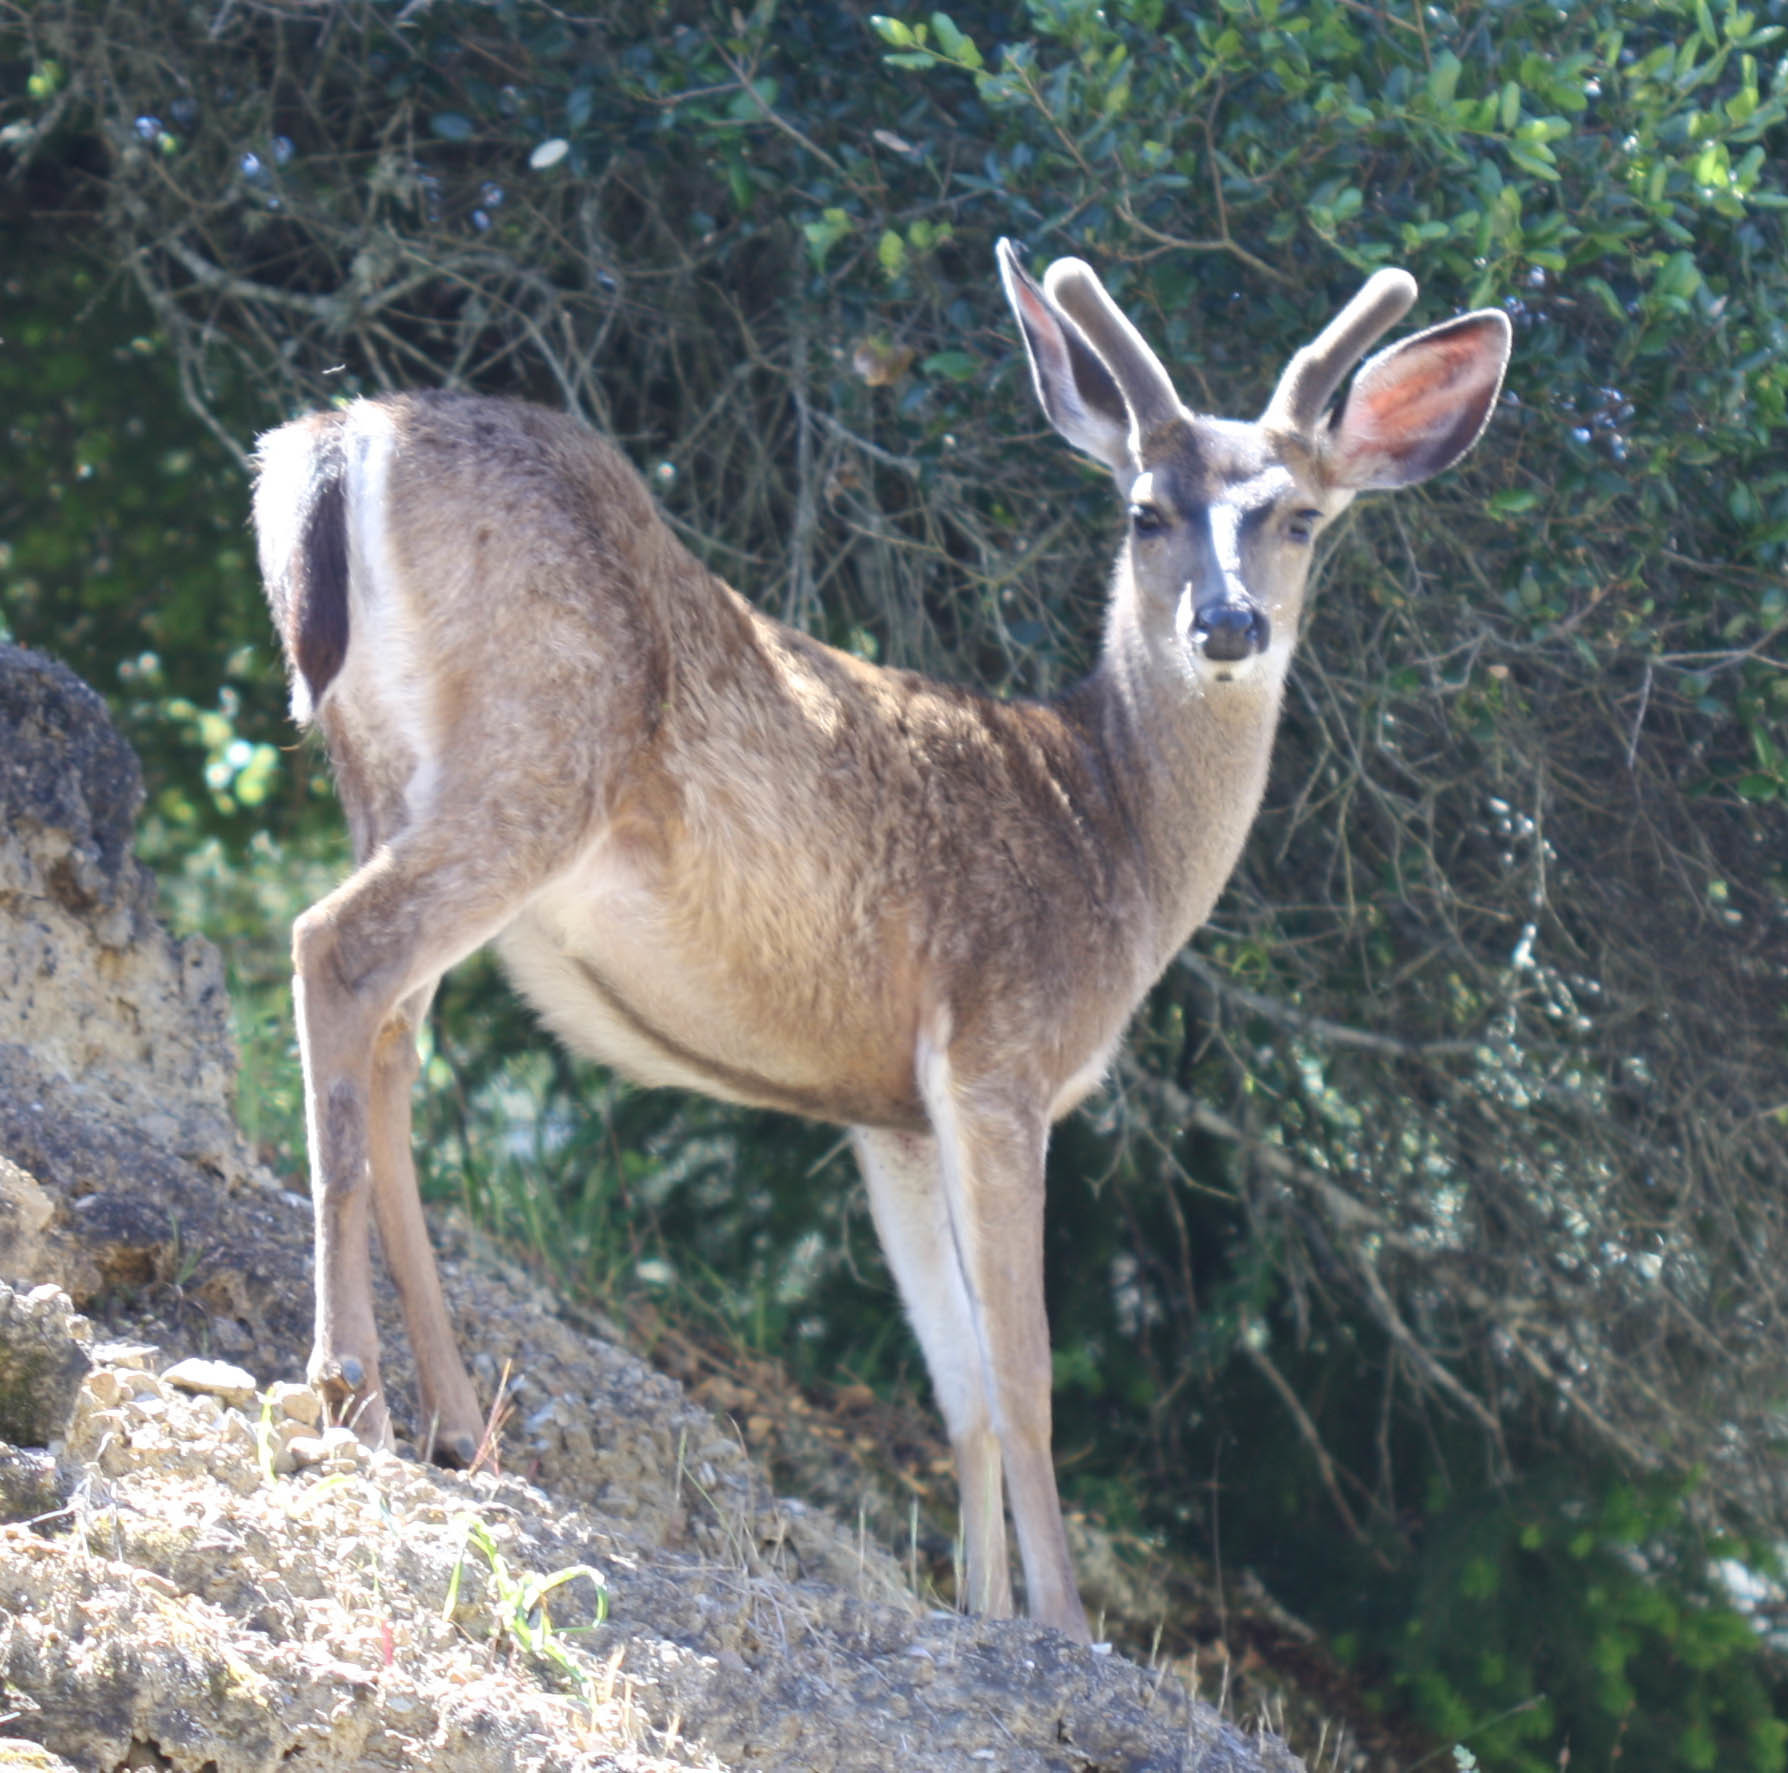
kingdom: Animalia
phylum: Chordata
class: Mammalia
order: Artiodactyla
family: Cervidae
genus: Odocoileus
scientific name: Odocoileus hemionus
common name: Mule deer
